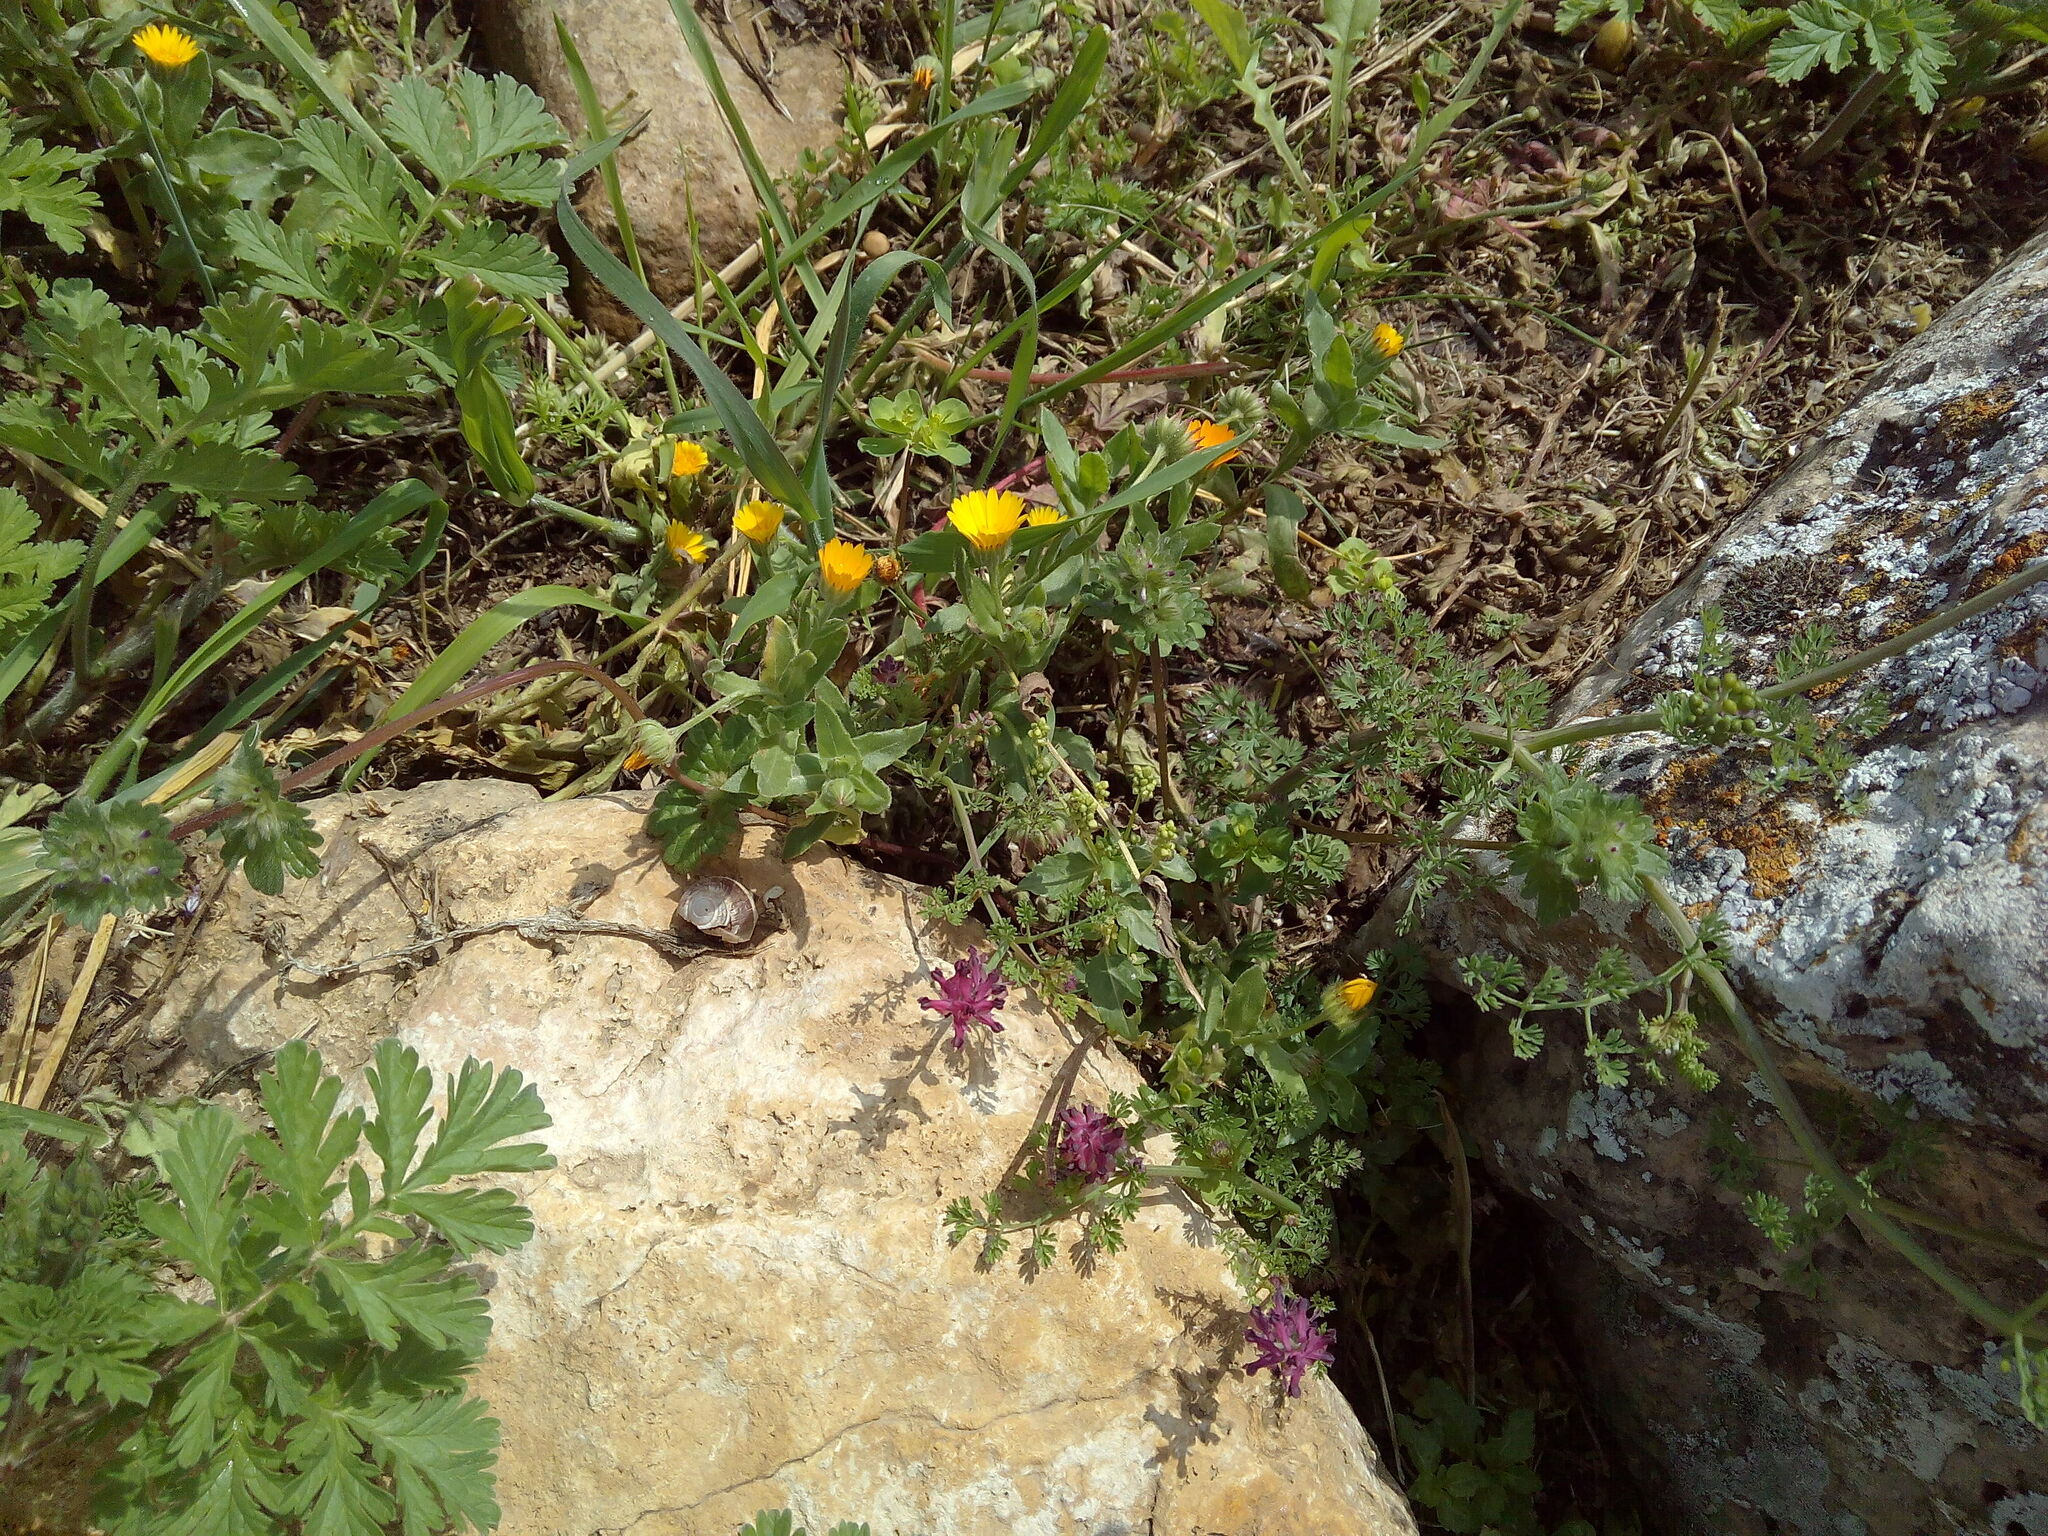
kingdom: Plantae
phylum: Tracheophyta
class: Magnoliopsida
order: Ranunculales
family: Papaveraceae
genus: Fumaria
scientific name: Fumaria officinalis
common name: Common fumitory
